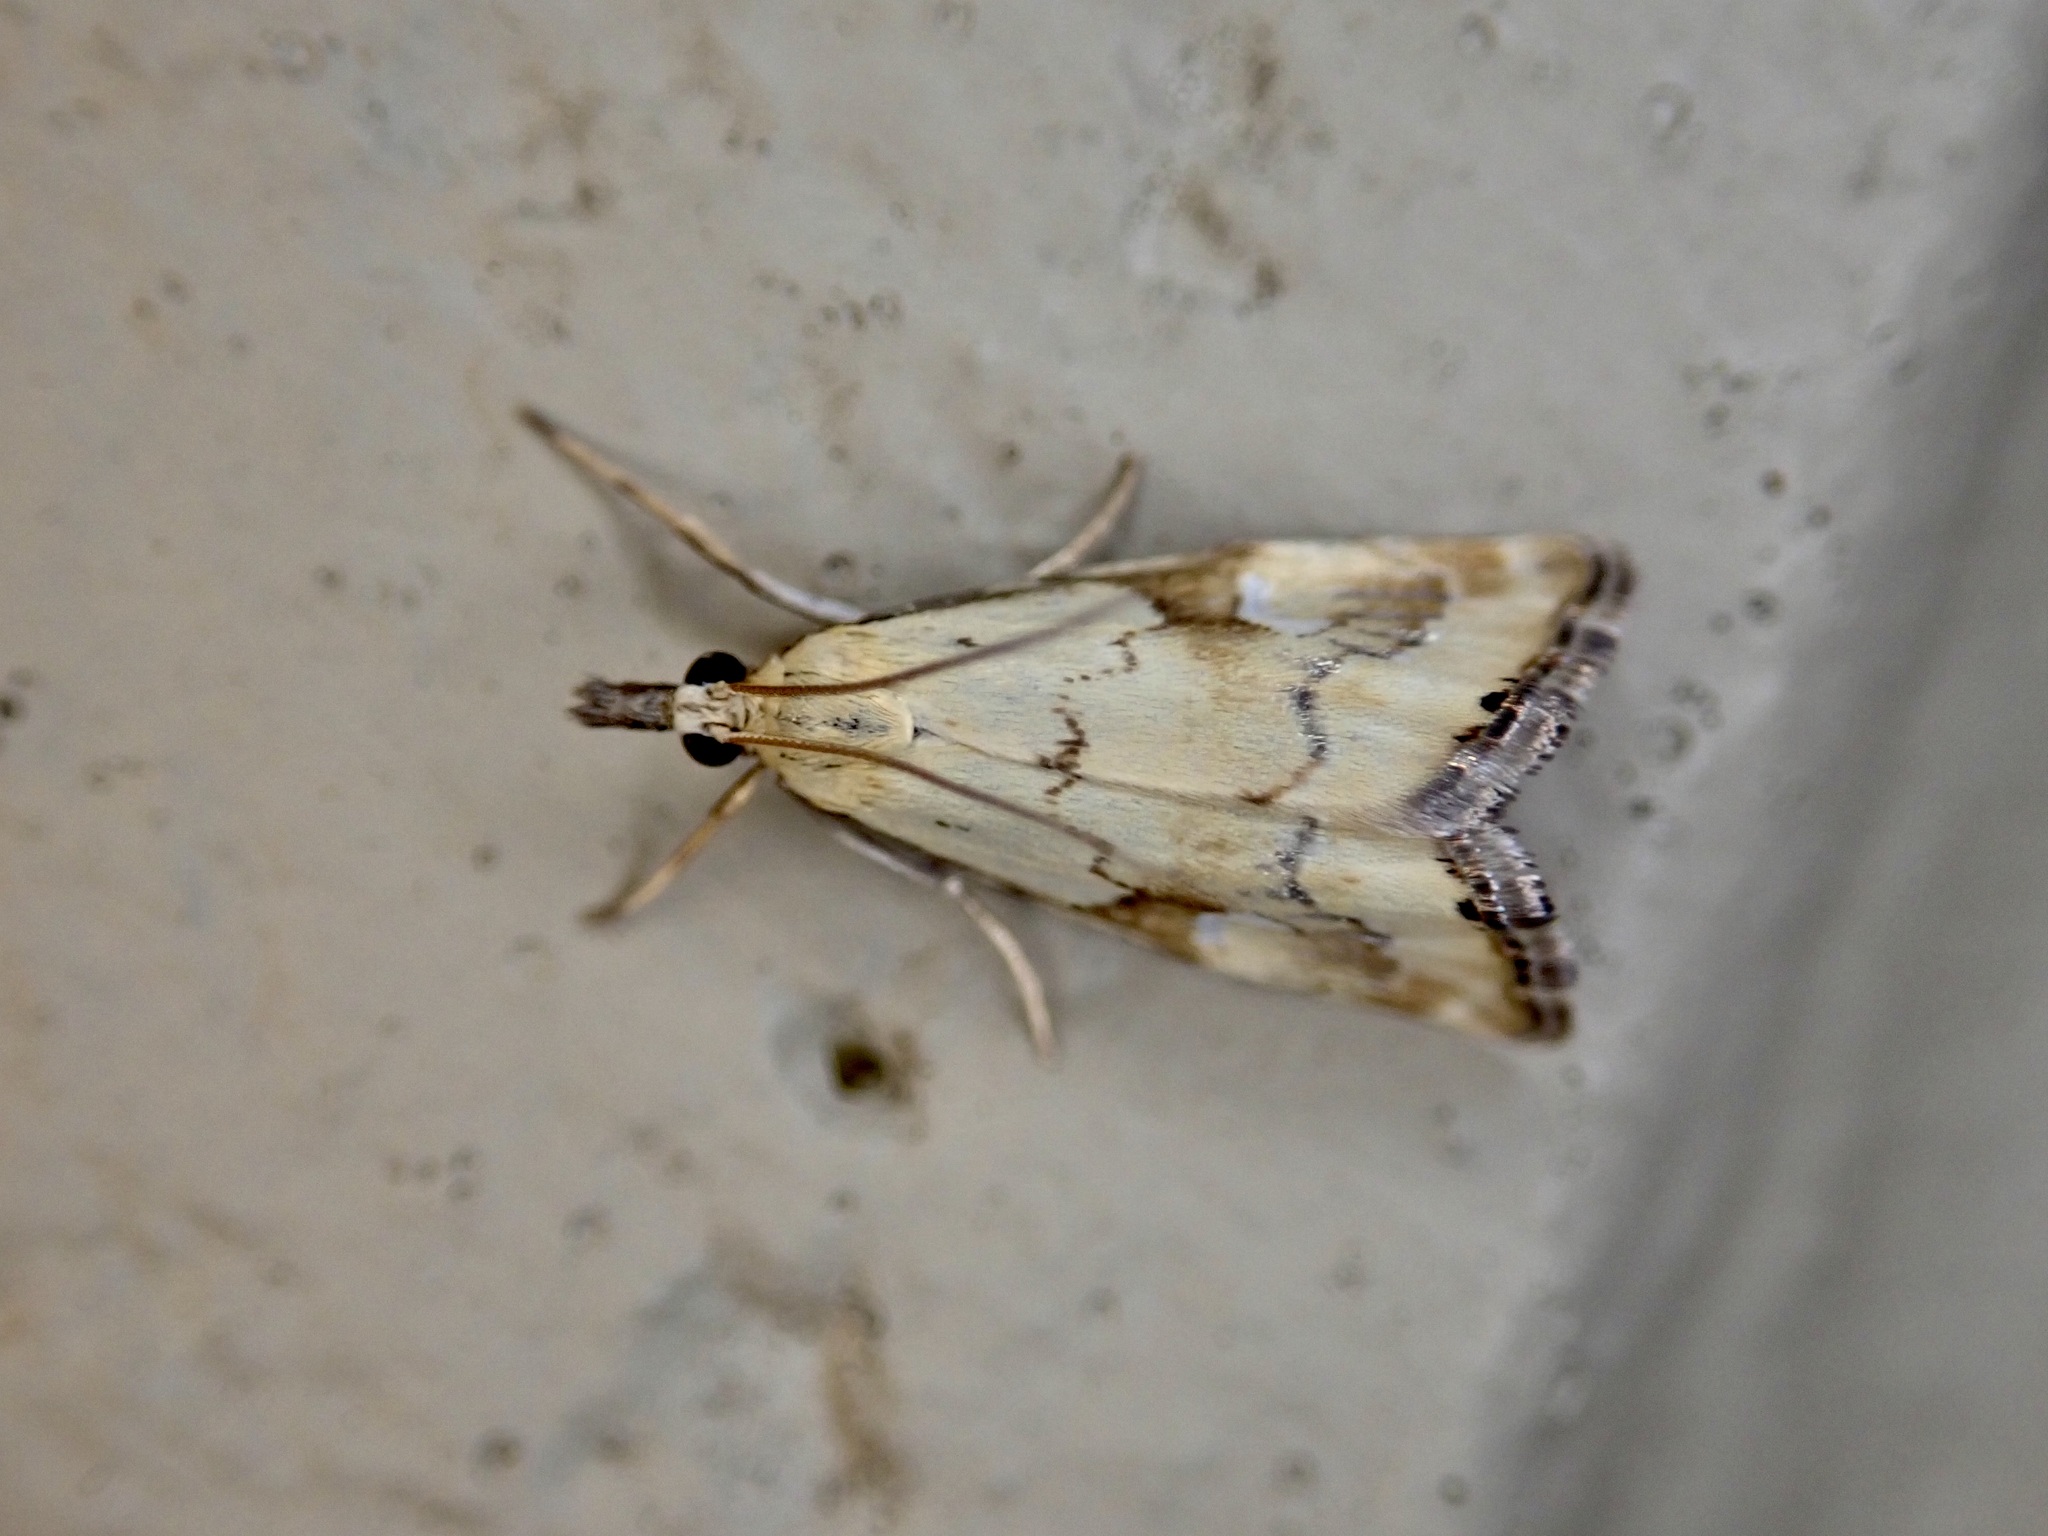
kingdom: Animalia
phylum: Arthropoda
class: Insecta
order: Lepidoptera
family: Crambidae
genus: Glaucocharis
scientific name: Glaucocharis lepidella
